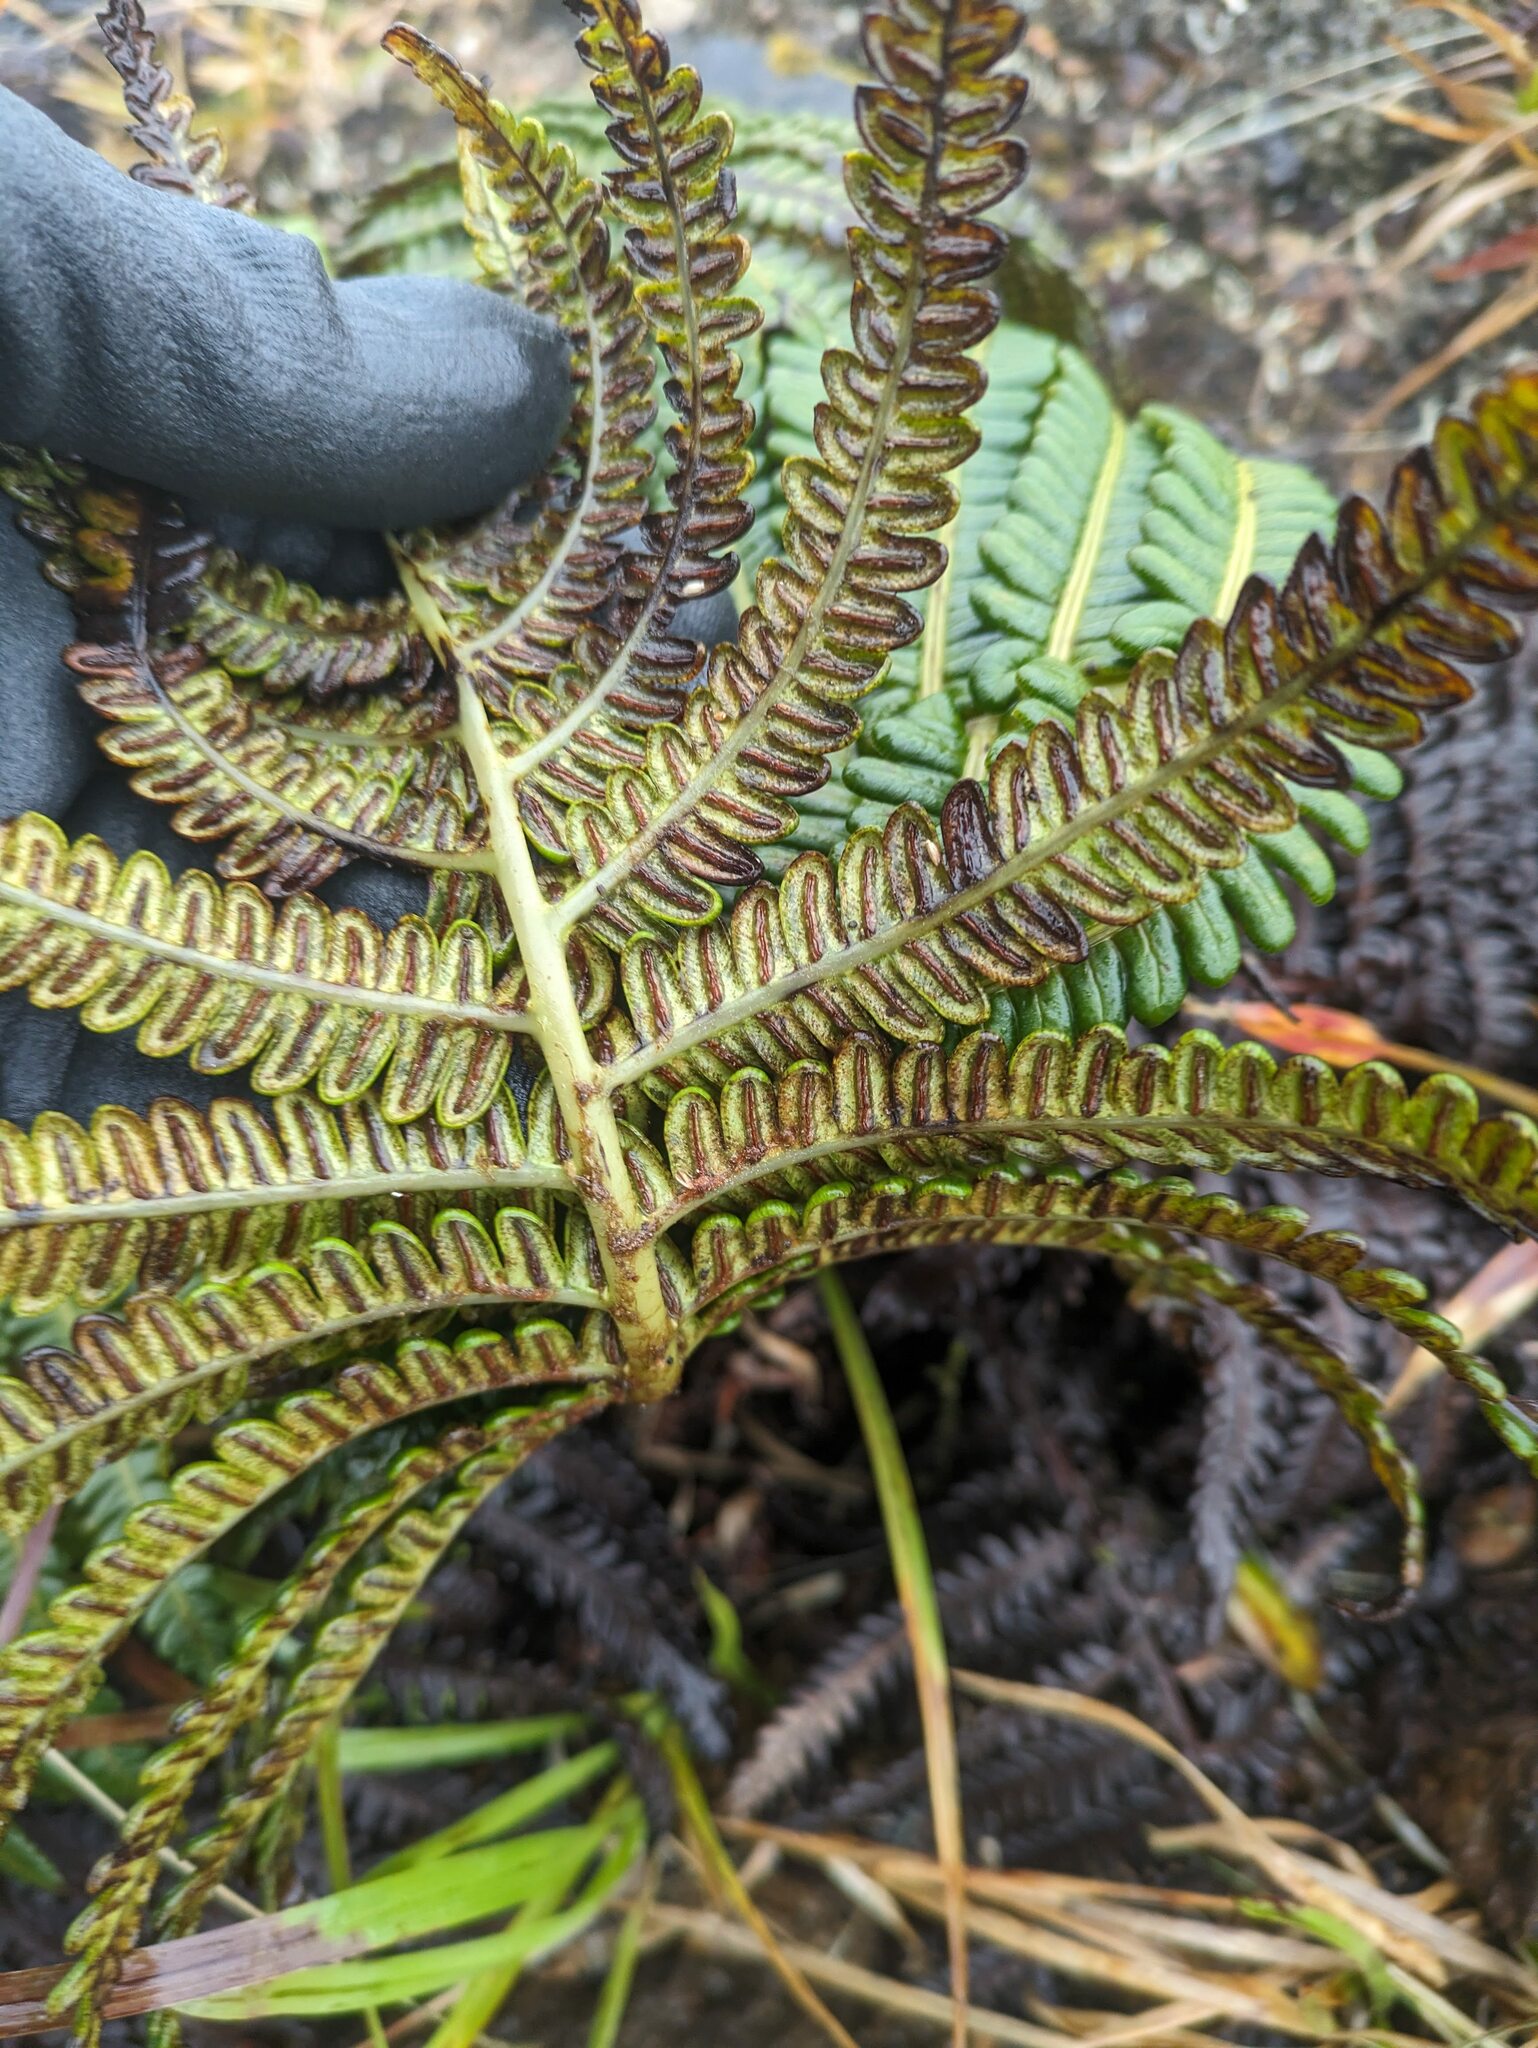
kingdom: Plantae
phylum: Tracheophyta
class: Polypodiopsida
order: Polypodiales
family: Blechnaceae
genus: Sadleria
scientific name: Sadleria cyatheoides
